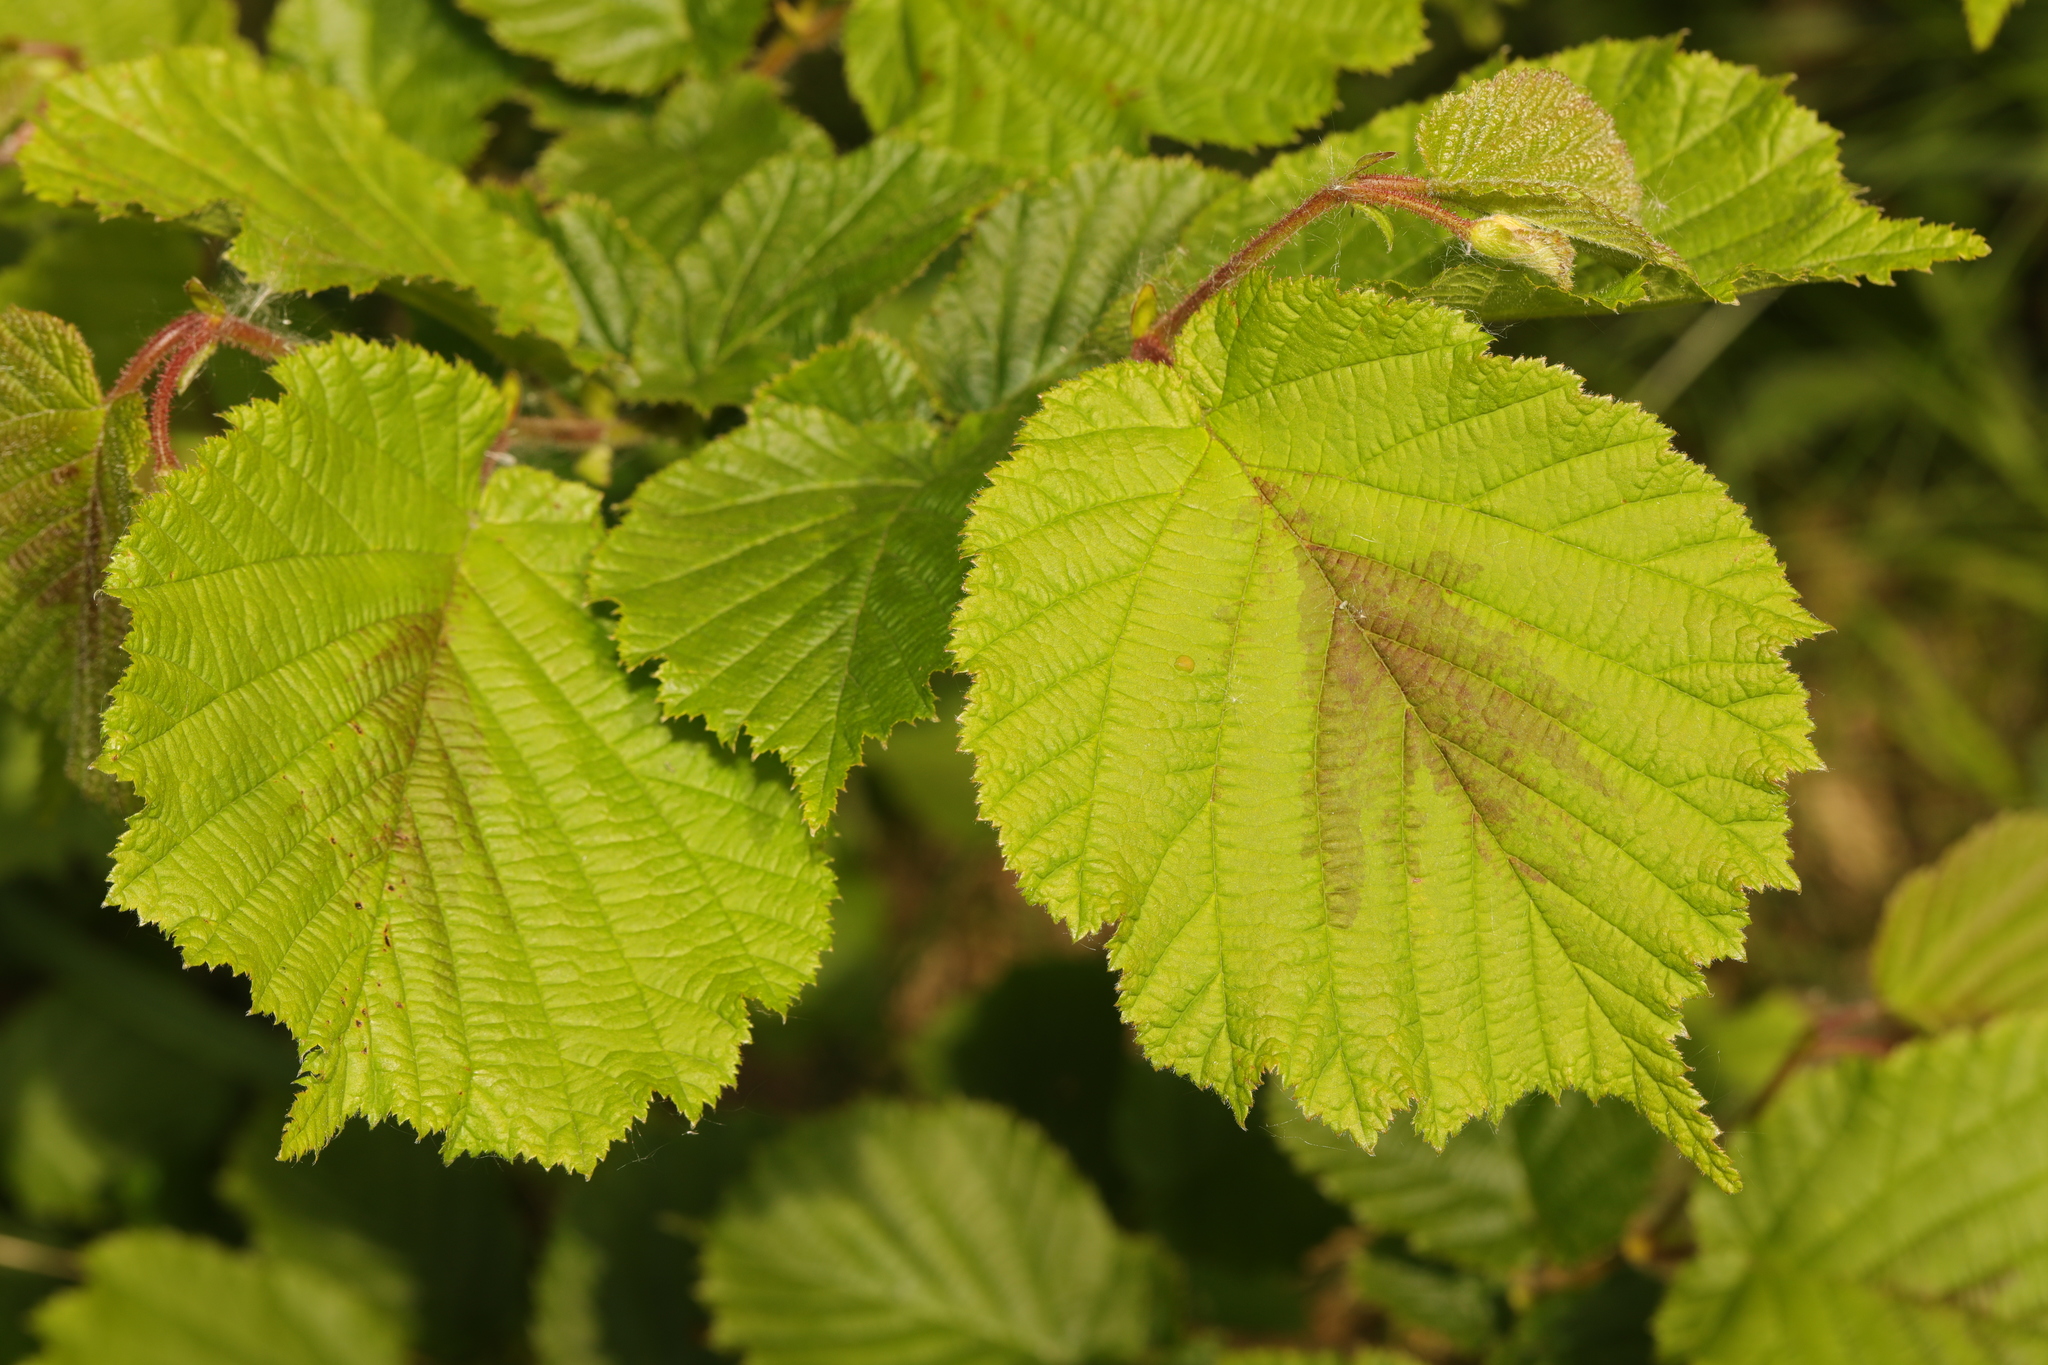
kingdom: Plantae
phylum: Tracheophyta
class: Magnoliopsida
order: Fagales
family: Betulaceae
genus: Corylus
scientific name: Corylus avellana
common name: European hazel
